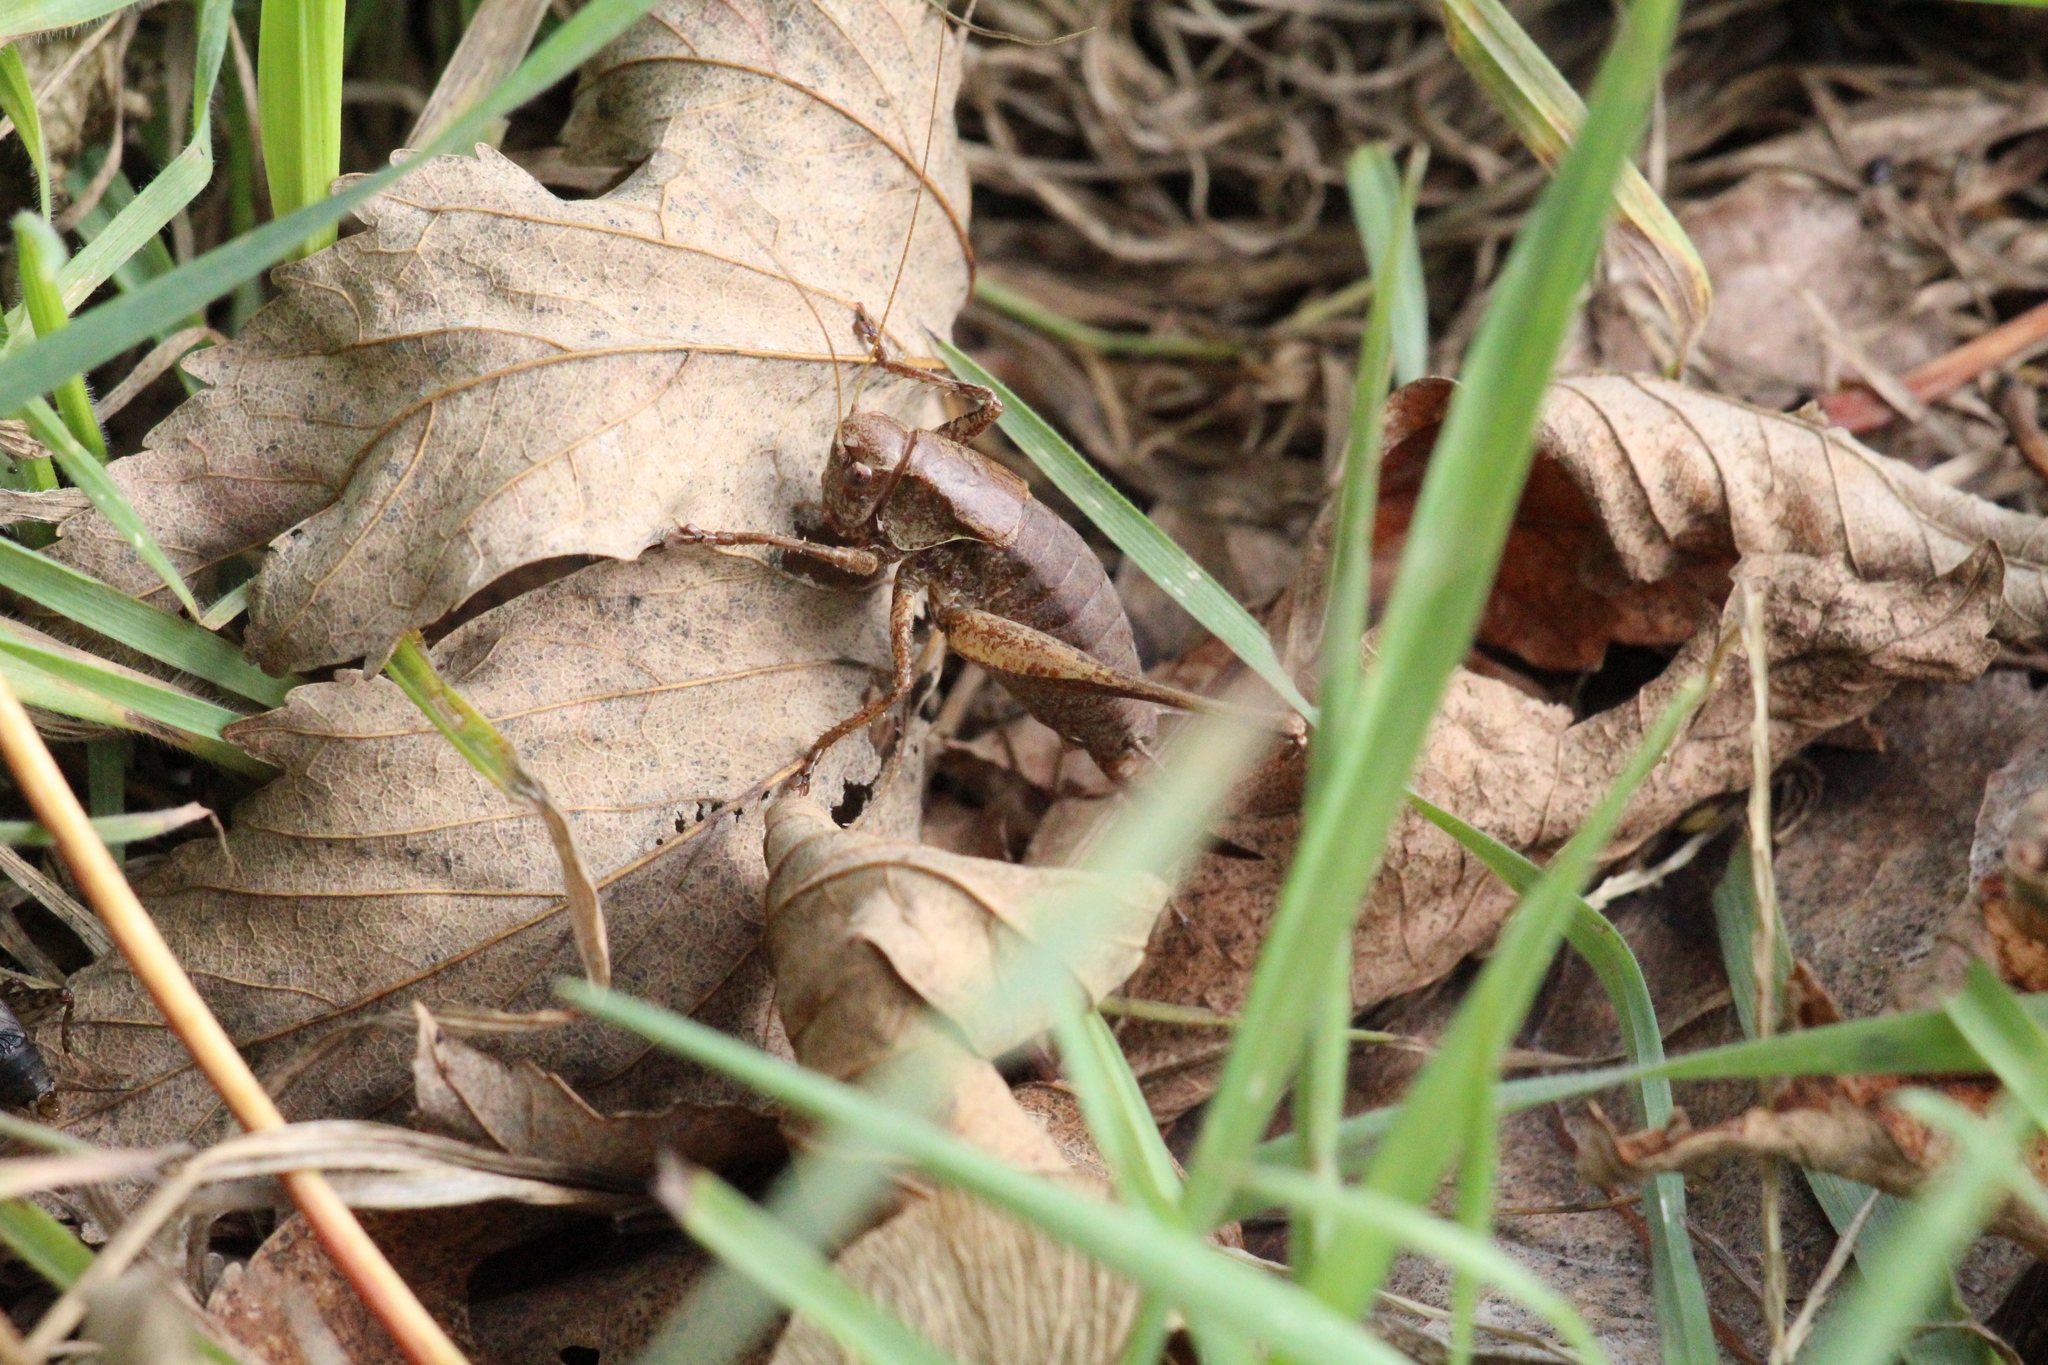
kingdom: Animalia
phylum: Arthropoda
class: Insecta
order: Orthoptera
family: Tettigoniidae
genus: Pholidoptera
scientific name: Pholidoptera griseoaptera
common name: Dark bush-cricket
